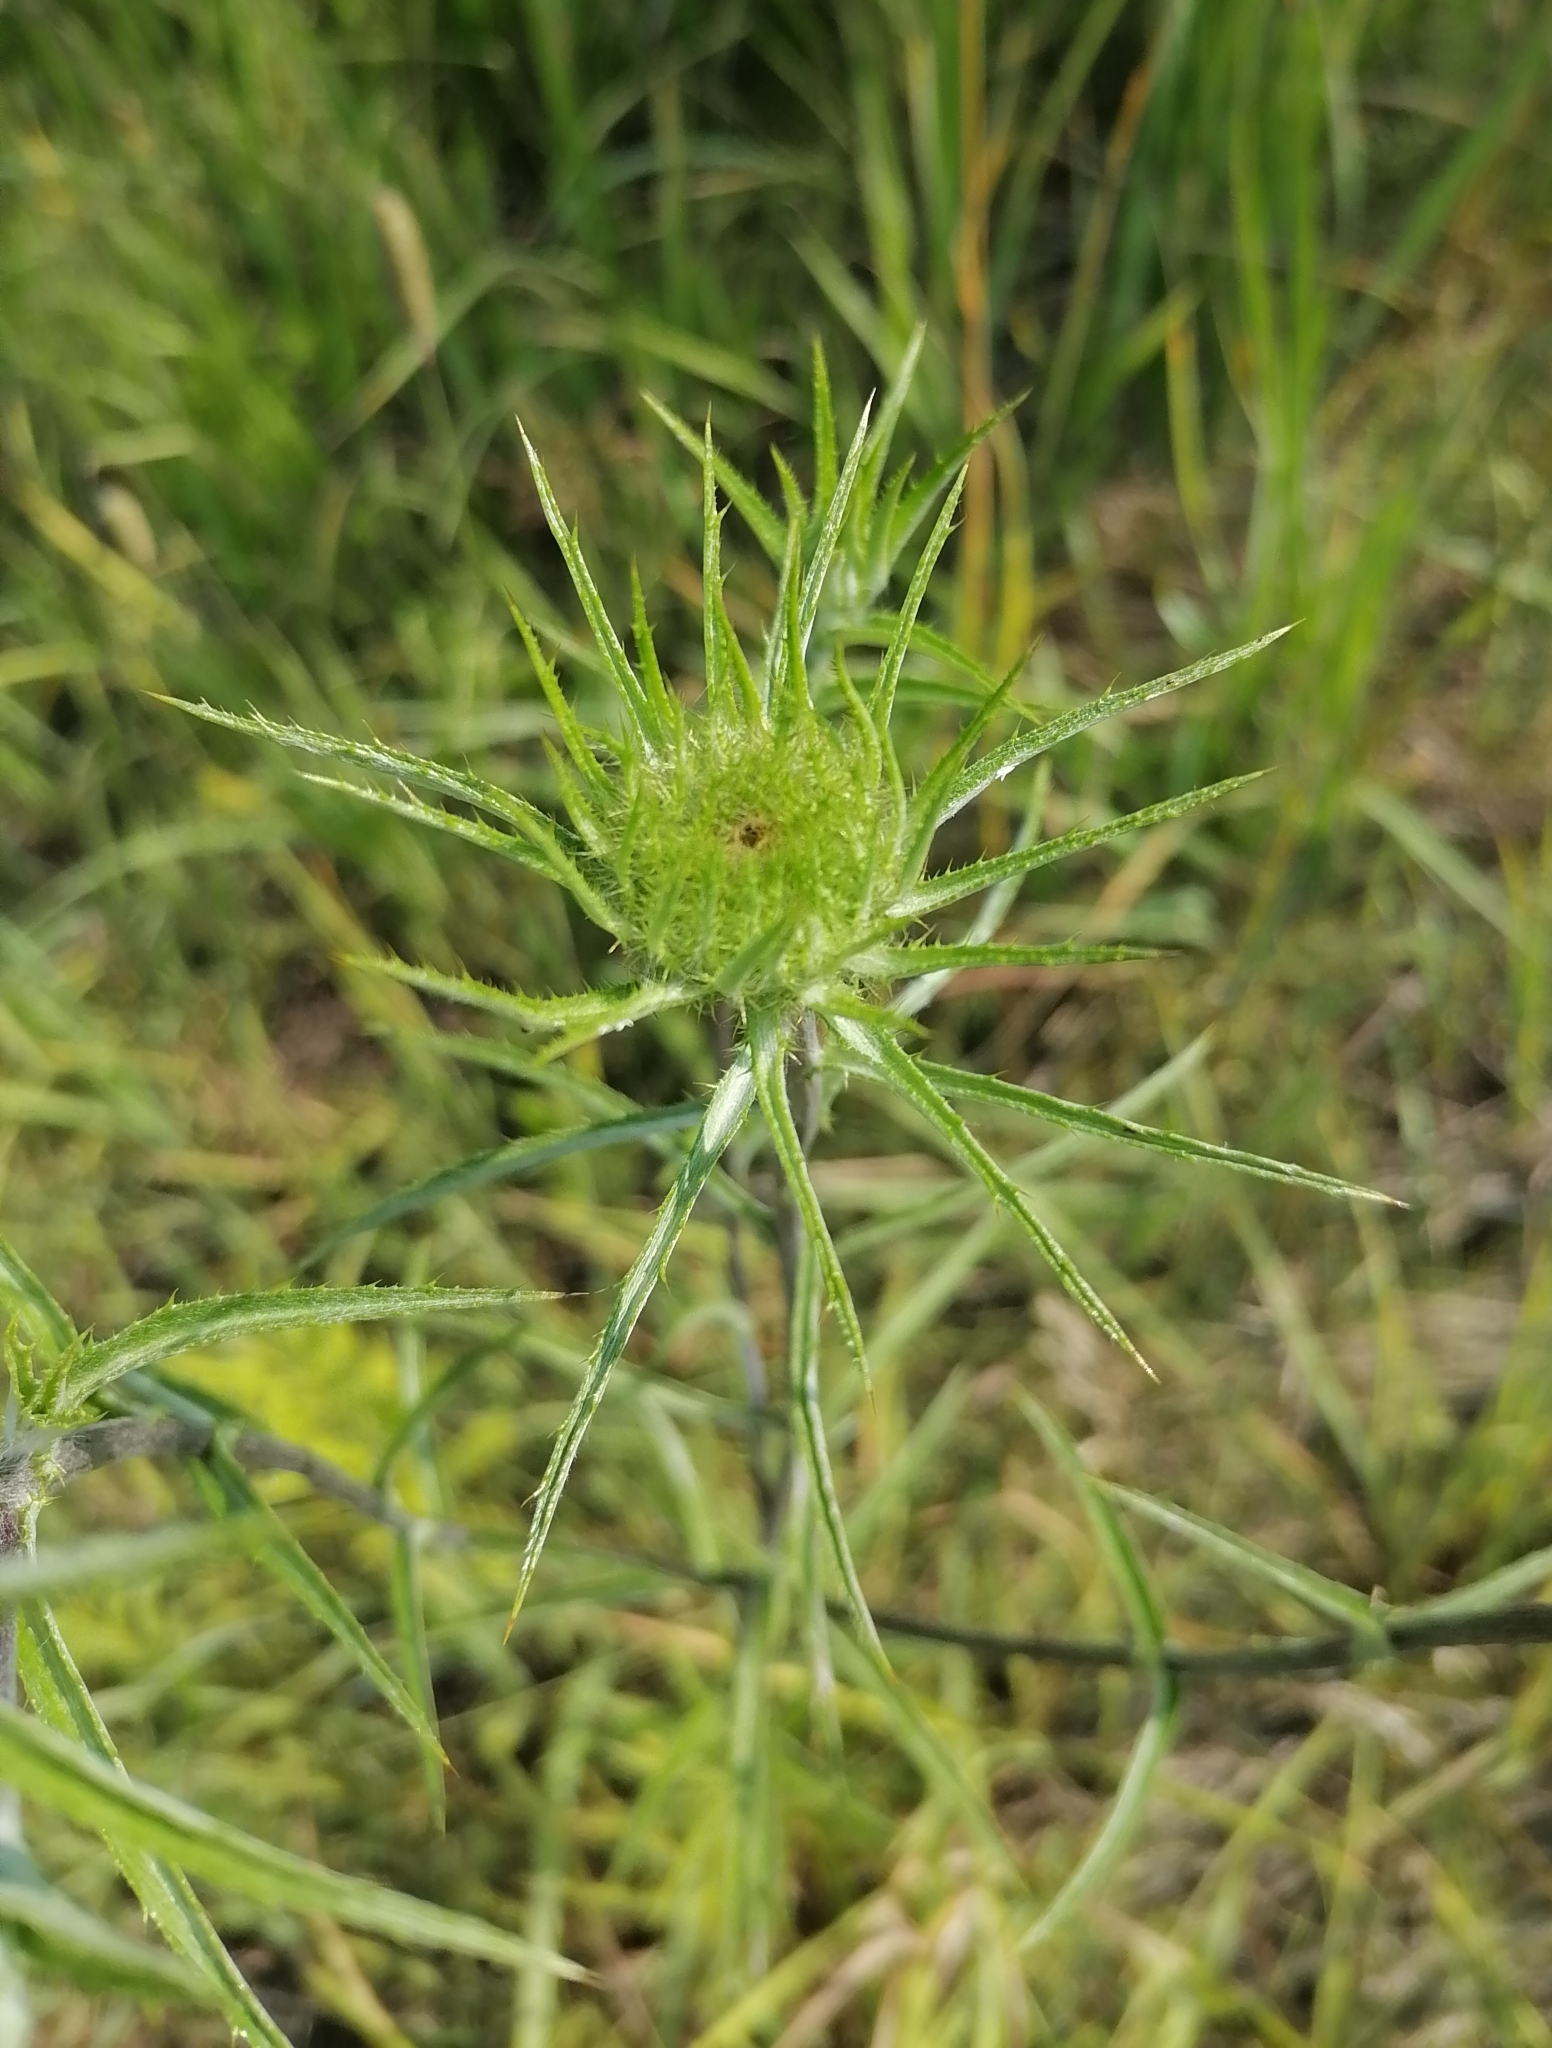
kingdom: Plantae
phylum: Tracheophyta
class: Magnoliopsida
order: Asterales
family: Asteraceae
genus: Carlina
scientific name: Carlina biebersteinii
